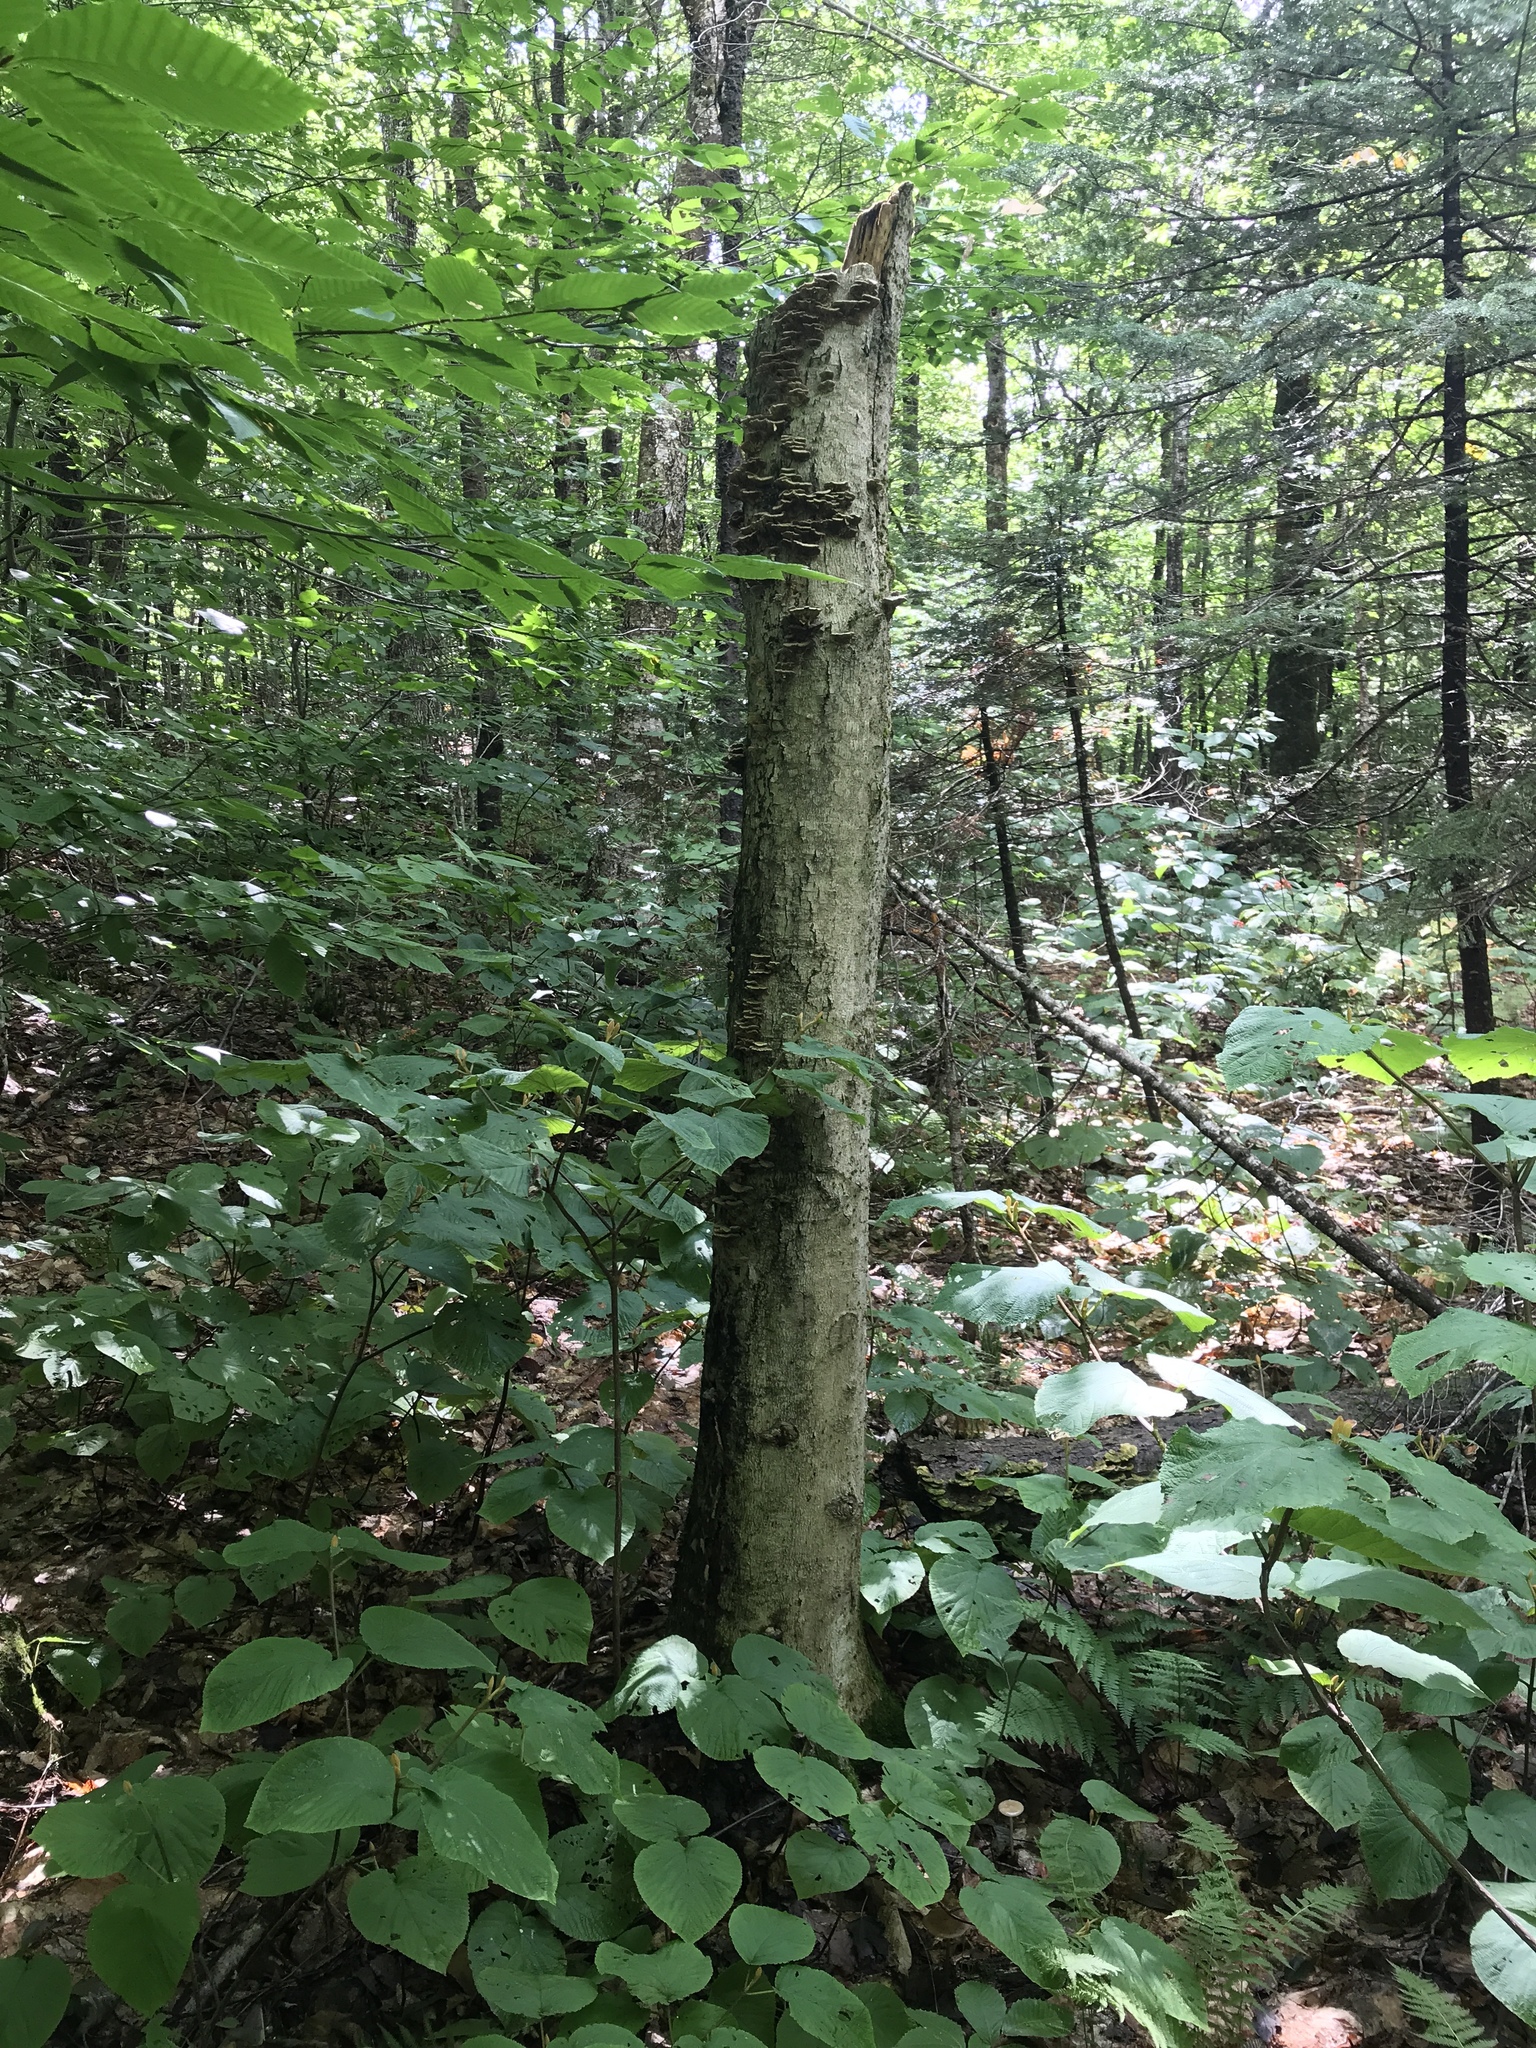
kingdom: Plantae
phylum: Tracheophyta
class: Magnoliopsida
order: Dipsacales
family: Viburnaceae
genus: Viburnum
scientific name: Viburnum lantanoides
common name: Hobblebush
